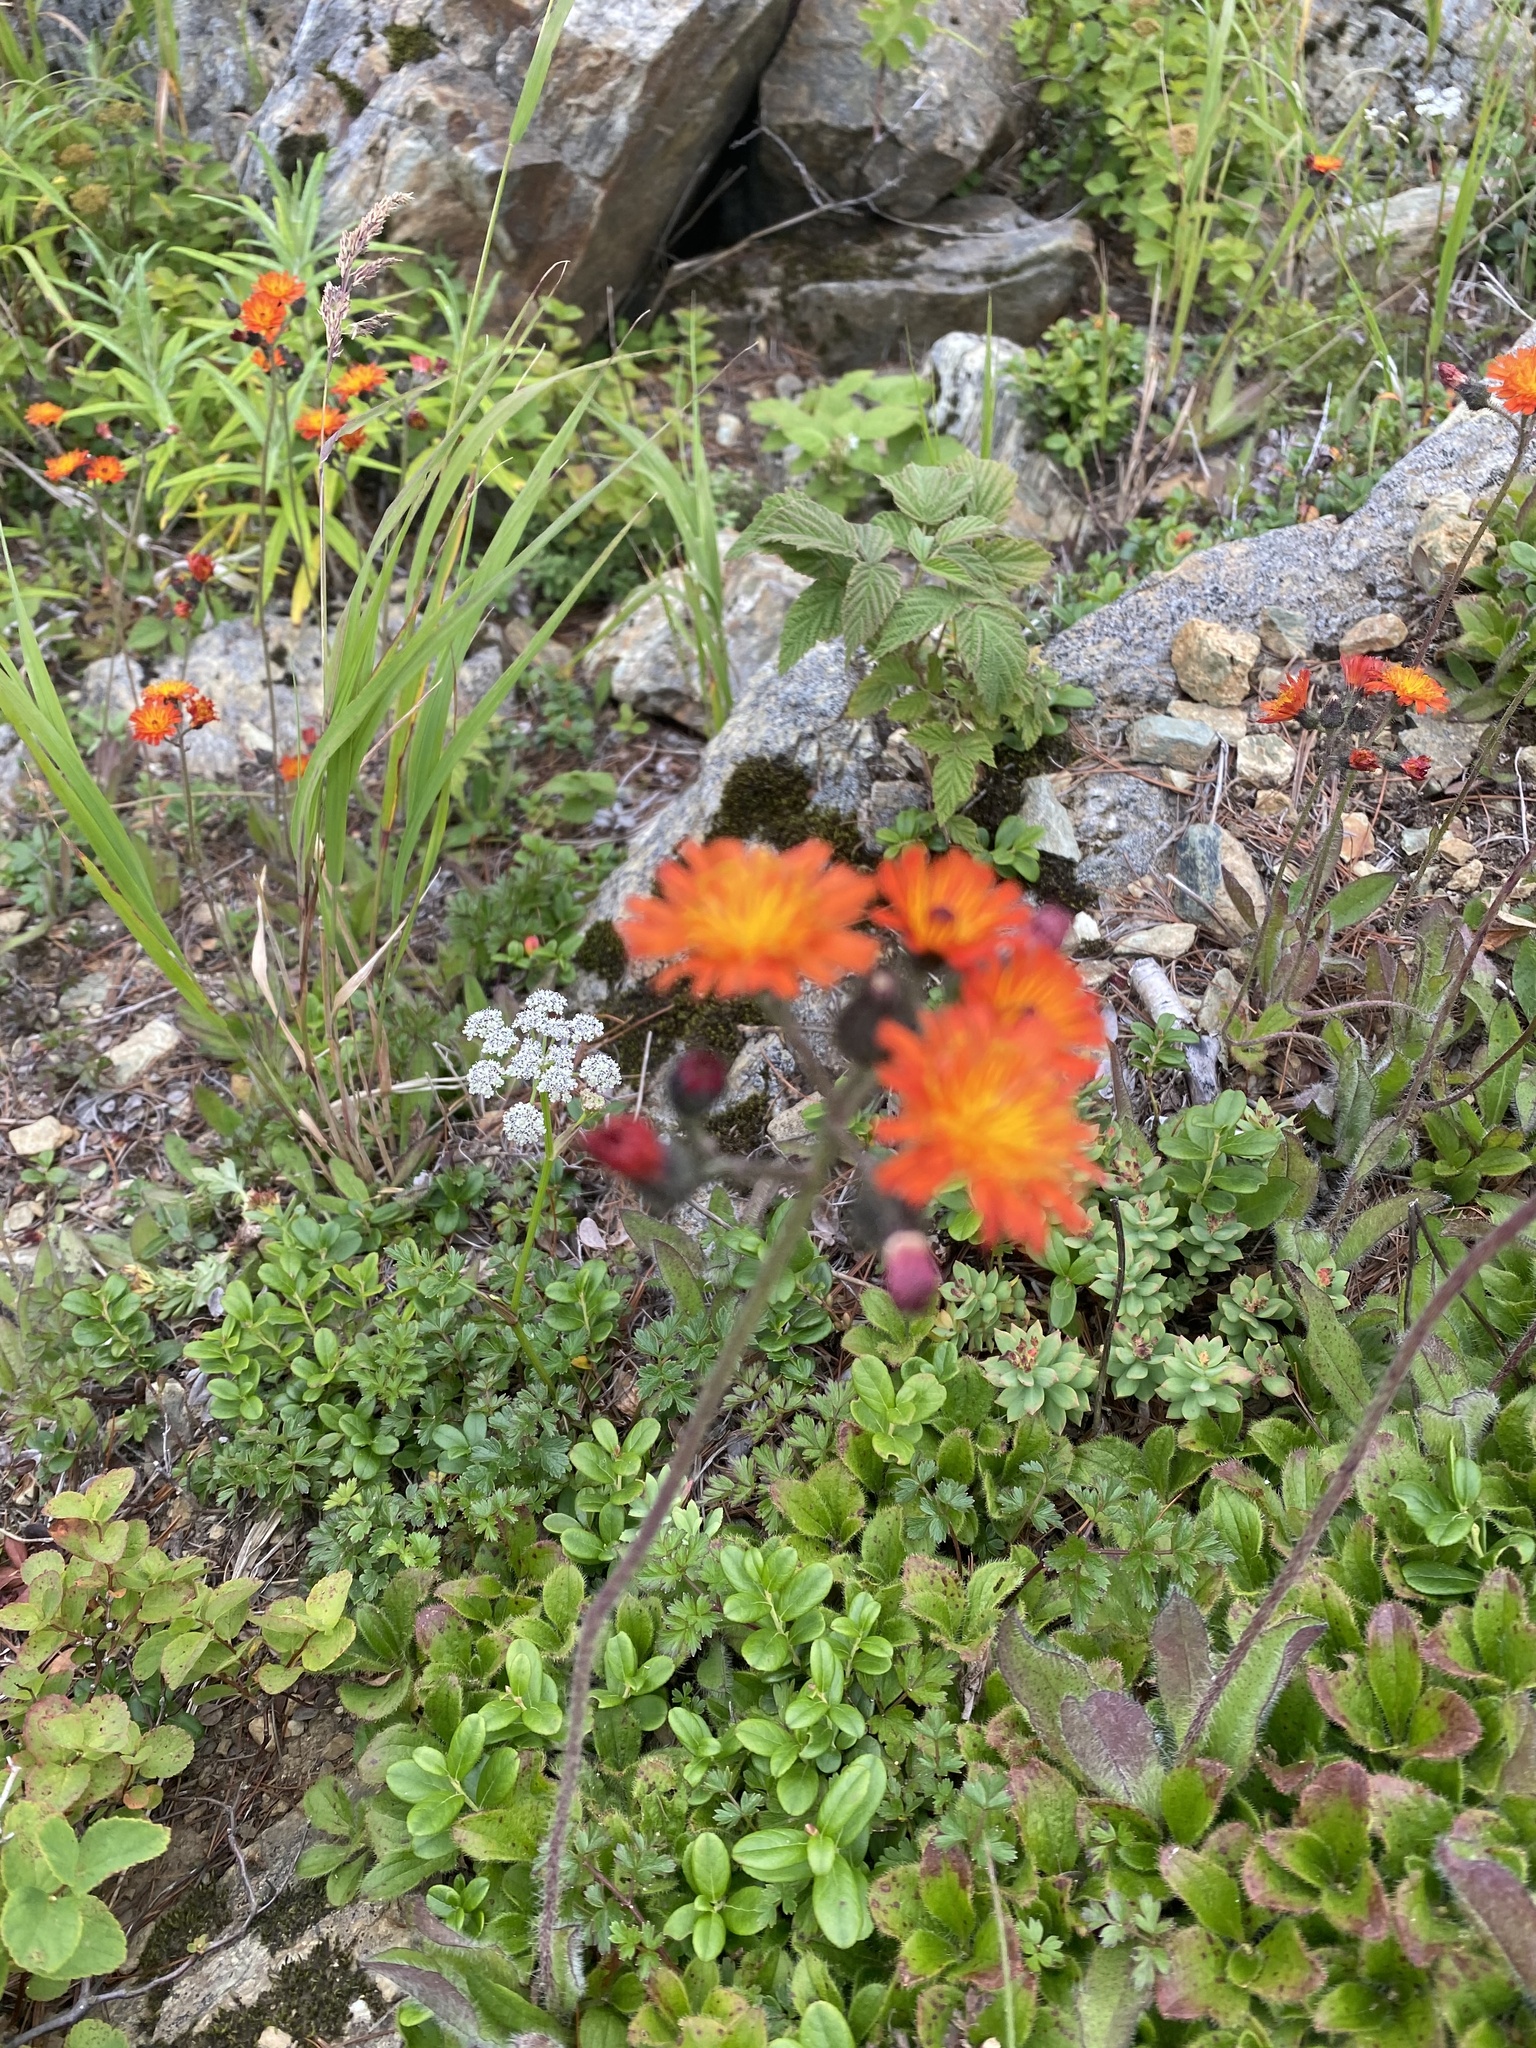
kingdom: Plantae
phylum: Tracheophyta
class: Magnoliopsida
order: Asterales
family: Asteraceae
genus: Pilosella
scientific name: Pilosella aurantiaca
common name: Fox-and-cubs
